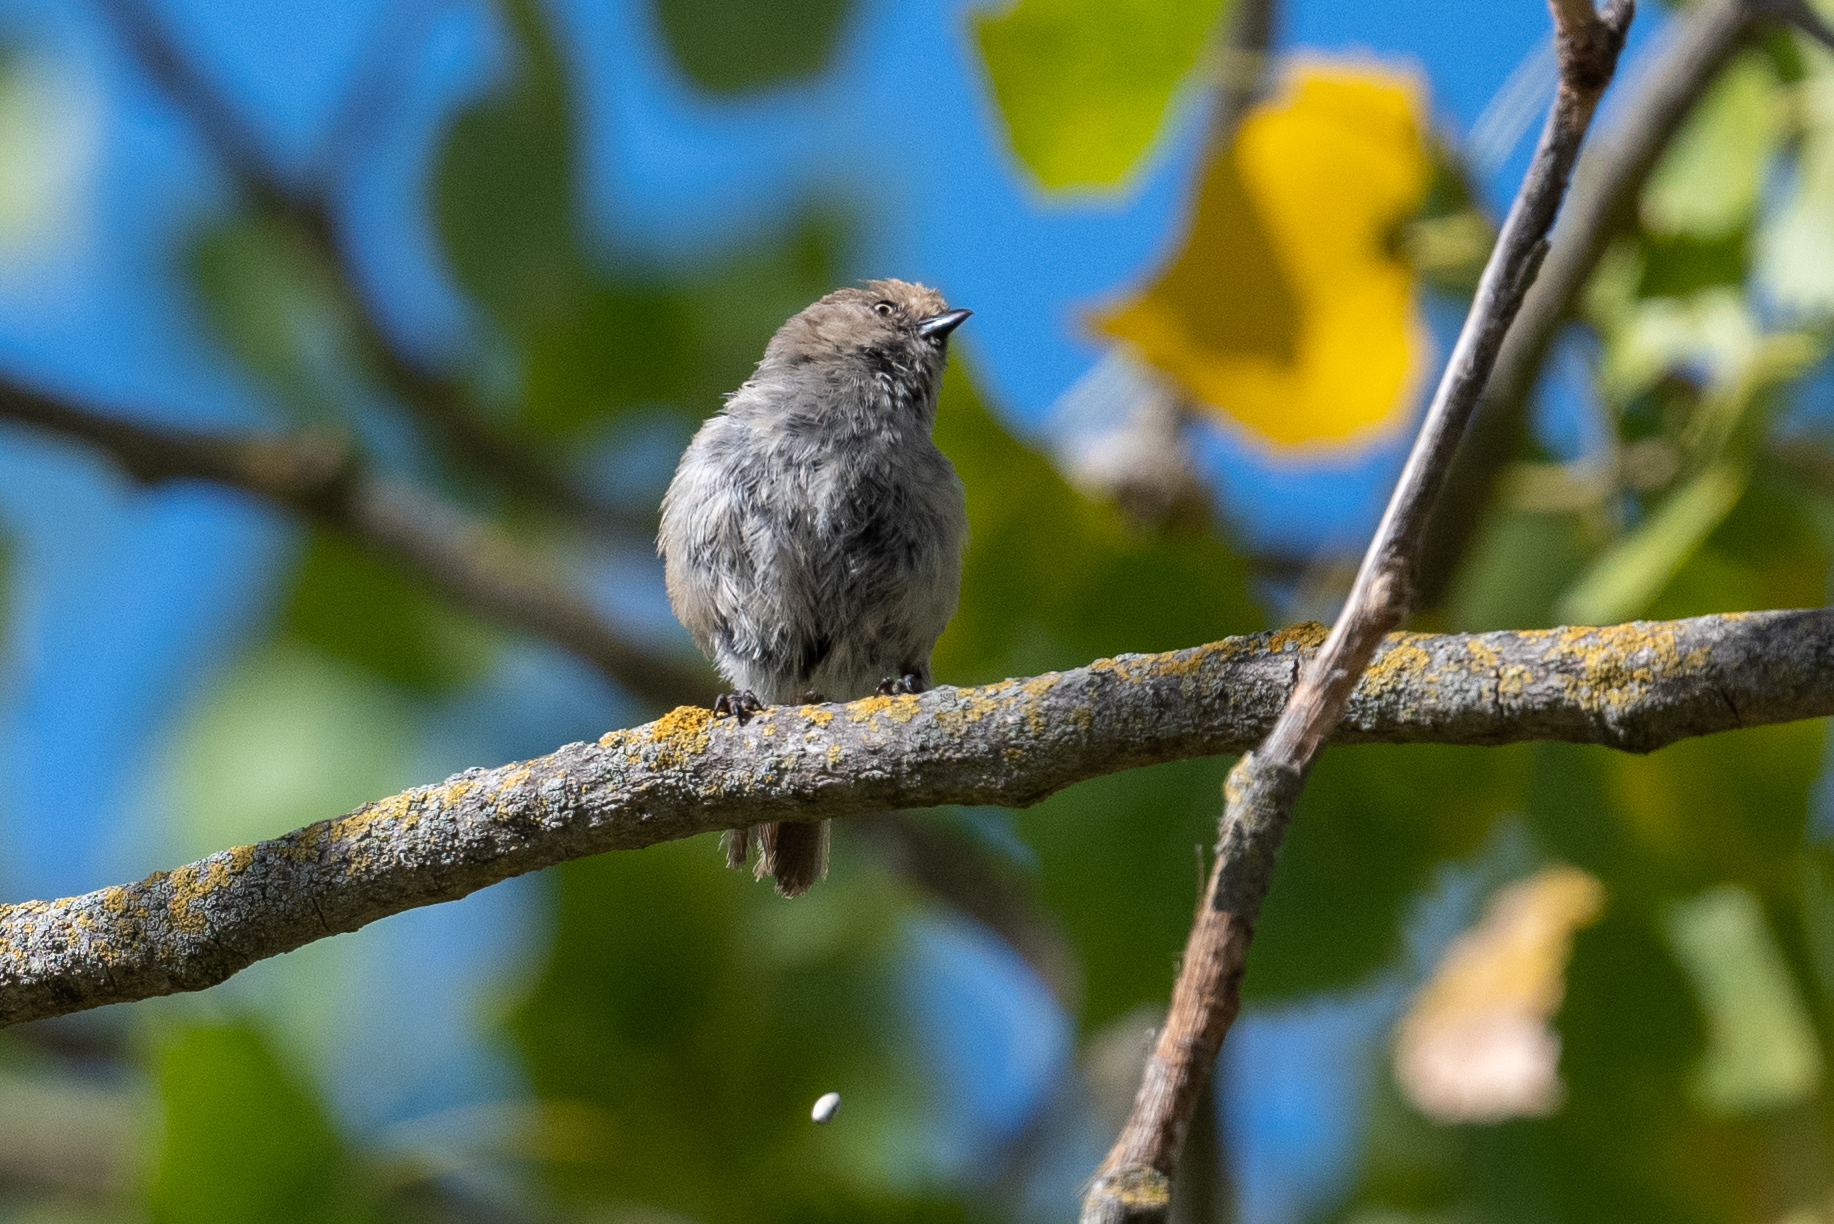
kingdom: Animalia
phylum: Chordata
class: Aves
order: Passeriformes
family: Aegithalidae
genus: Psaltriparus
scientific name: Psaltriparus minimus
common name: American bushtit
